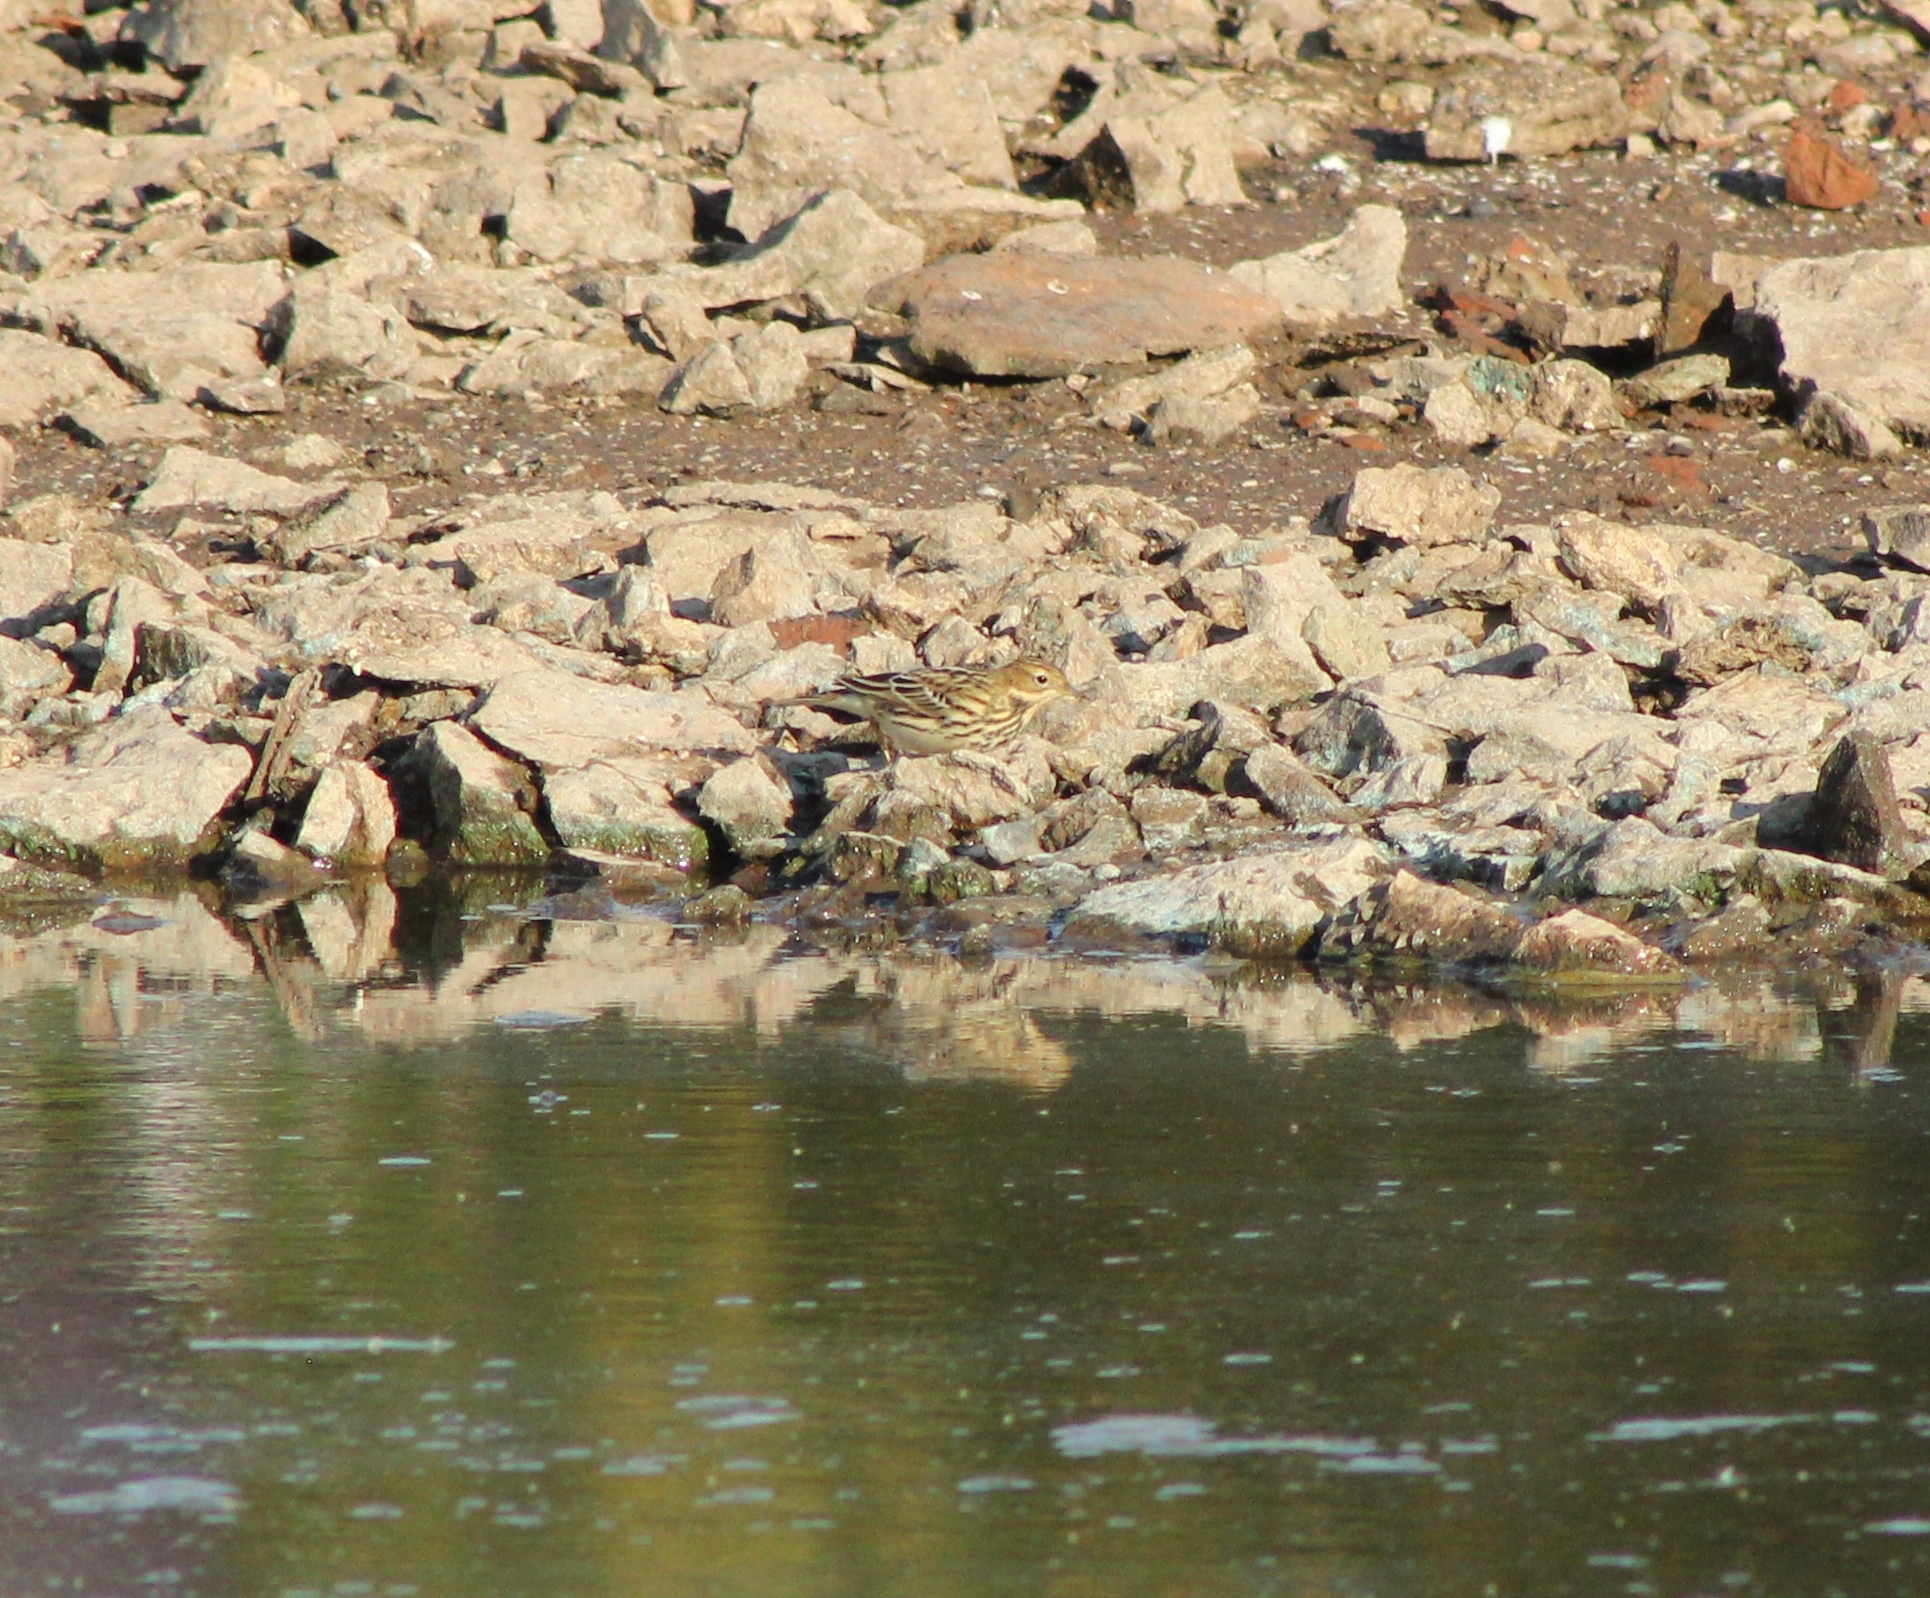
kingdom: Animalia
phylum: Chordata
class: Aves
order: Passeriformes
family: Motacillidae
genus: Anthus
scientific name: Anthus cervinus
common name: Red-throated pipit
